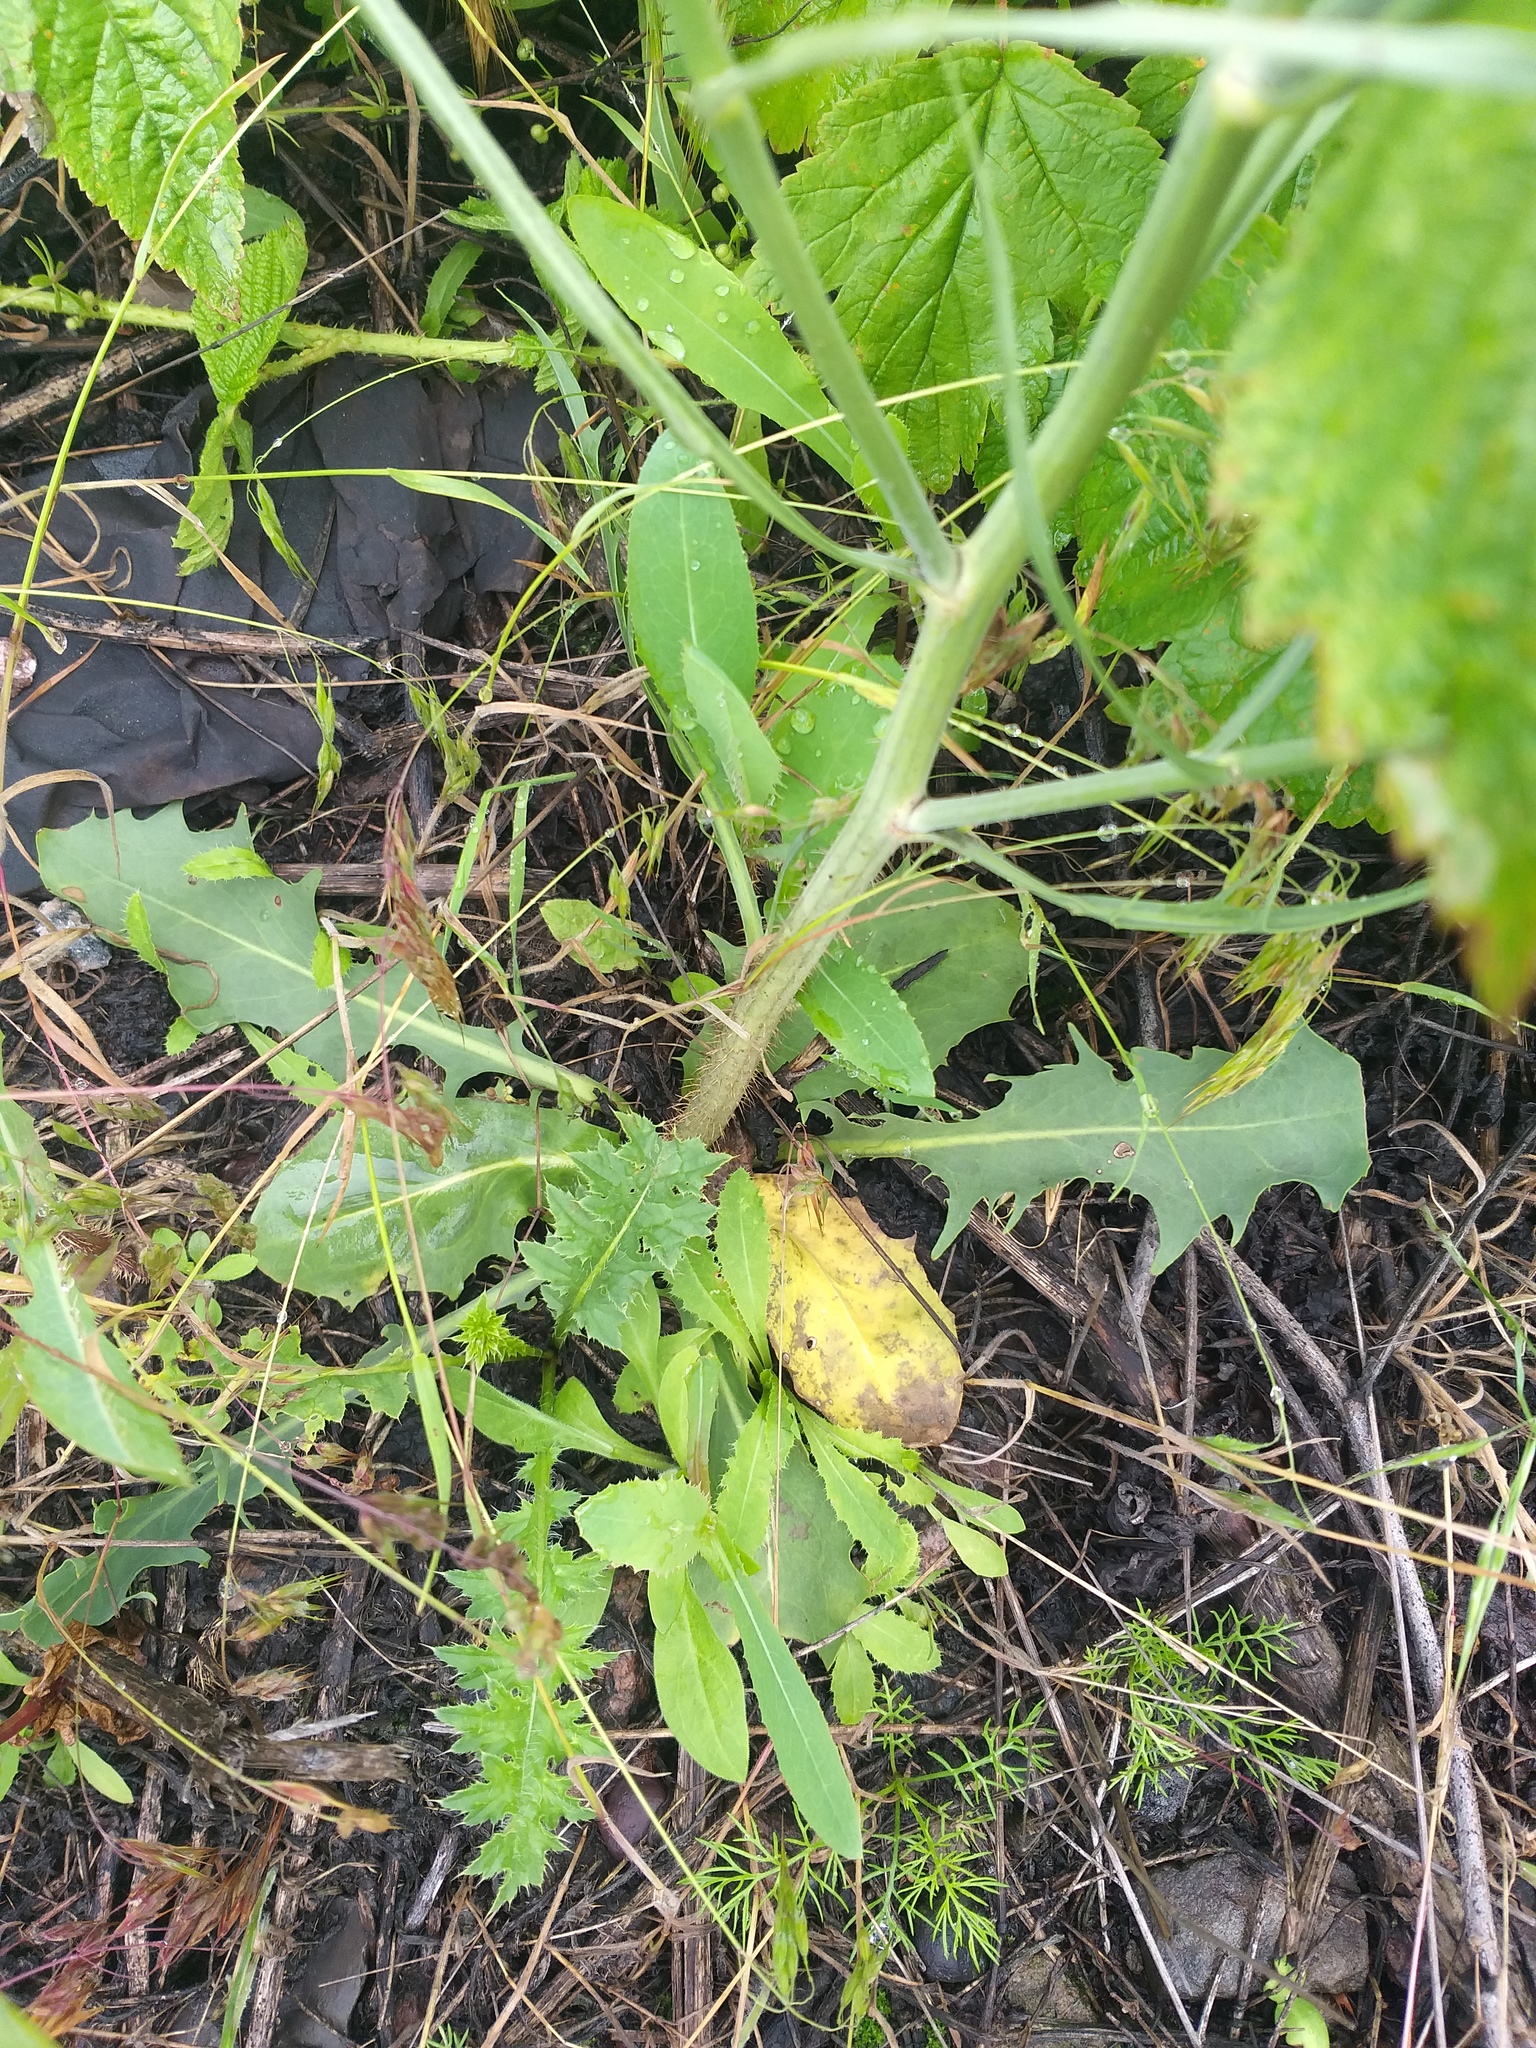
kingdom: Plantae
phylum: Tracheophyta
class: Magnoliopsida
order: Asterales
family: Asteraceae
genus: Chondrilla
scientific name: Chondrilla juncea
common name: Skeleton weed
